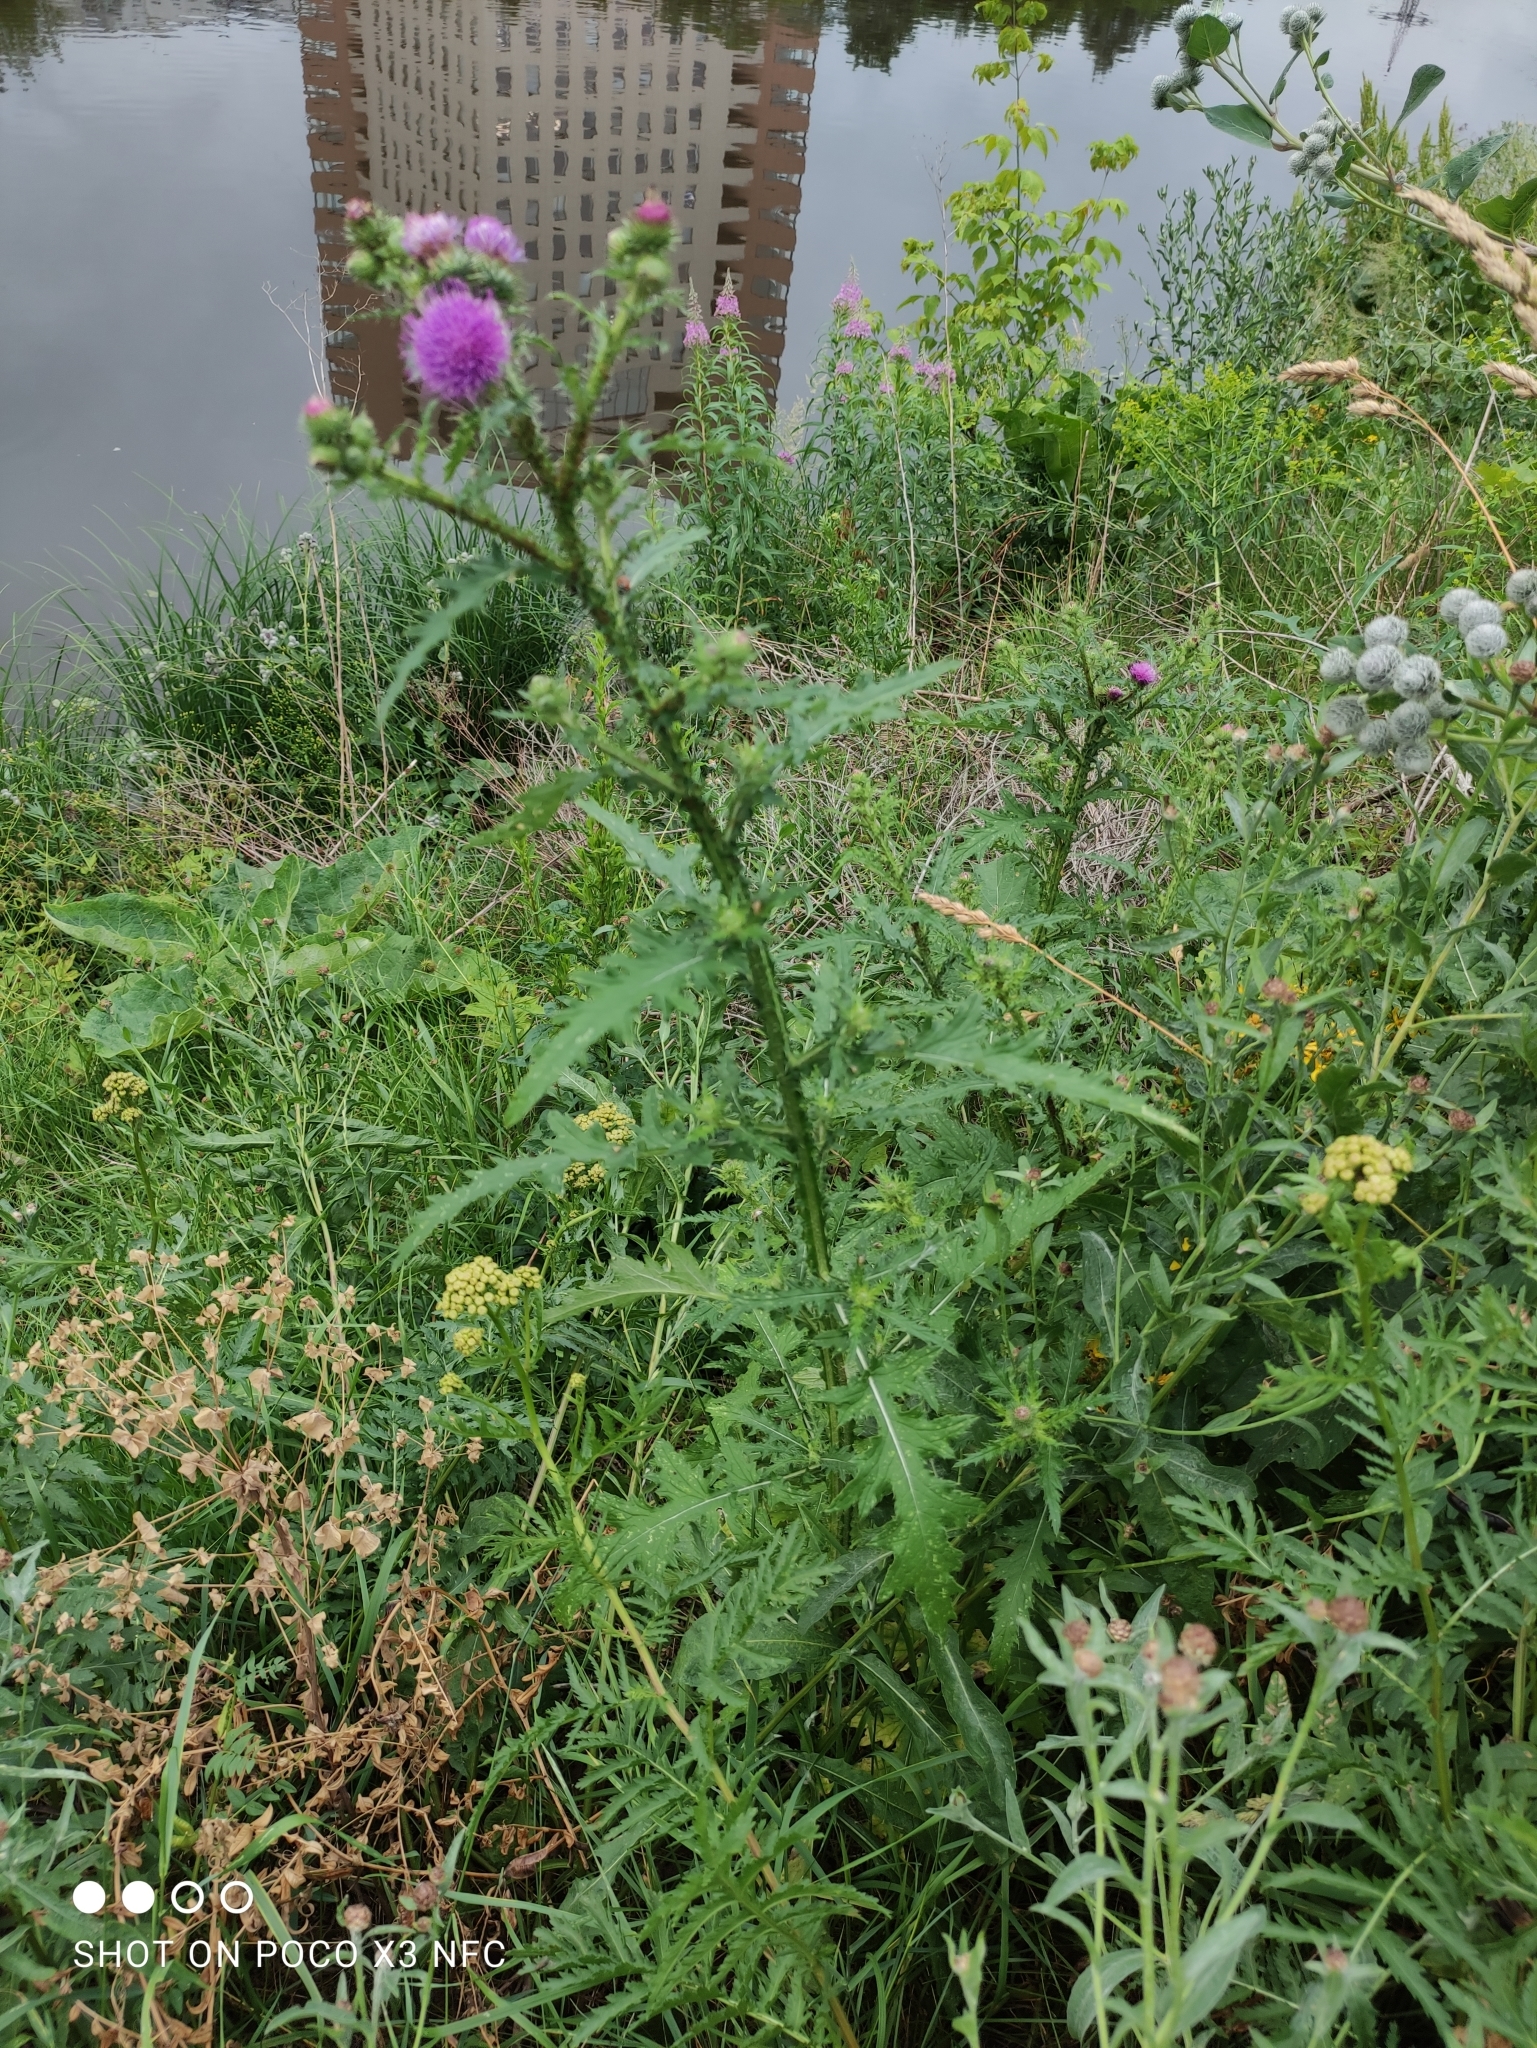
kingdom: Plantae
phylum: Tracheophyta
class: Magnoliopsida
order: Asterales
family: Asteraceae
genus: Carduus
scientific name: Carduus crispus
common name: Welted thistle
